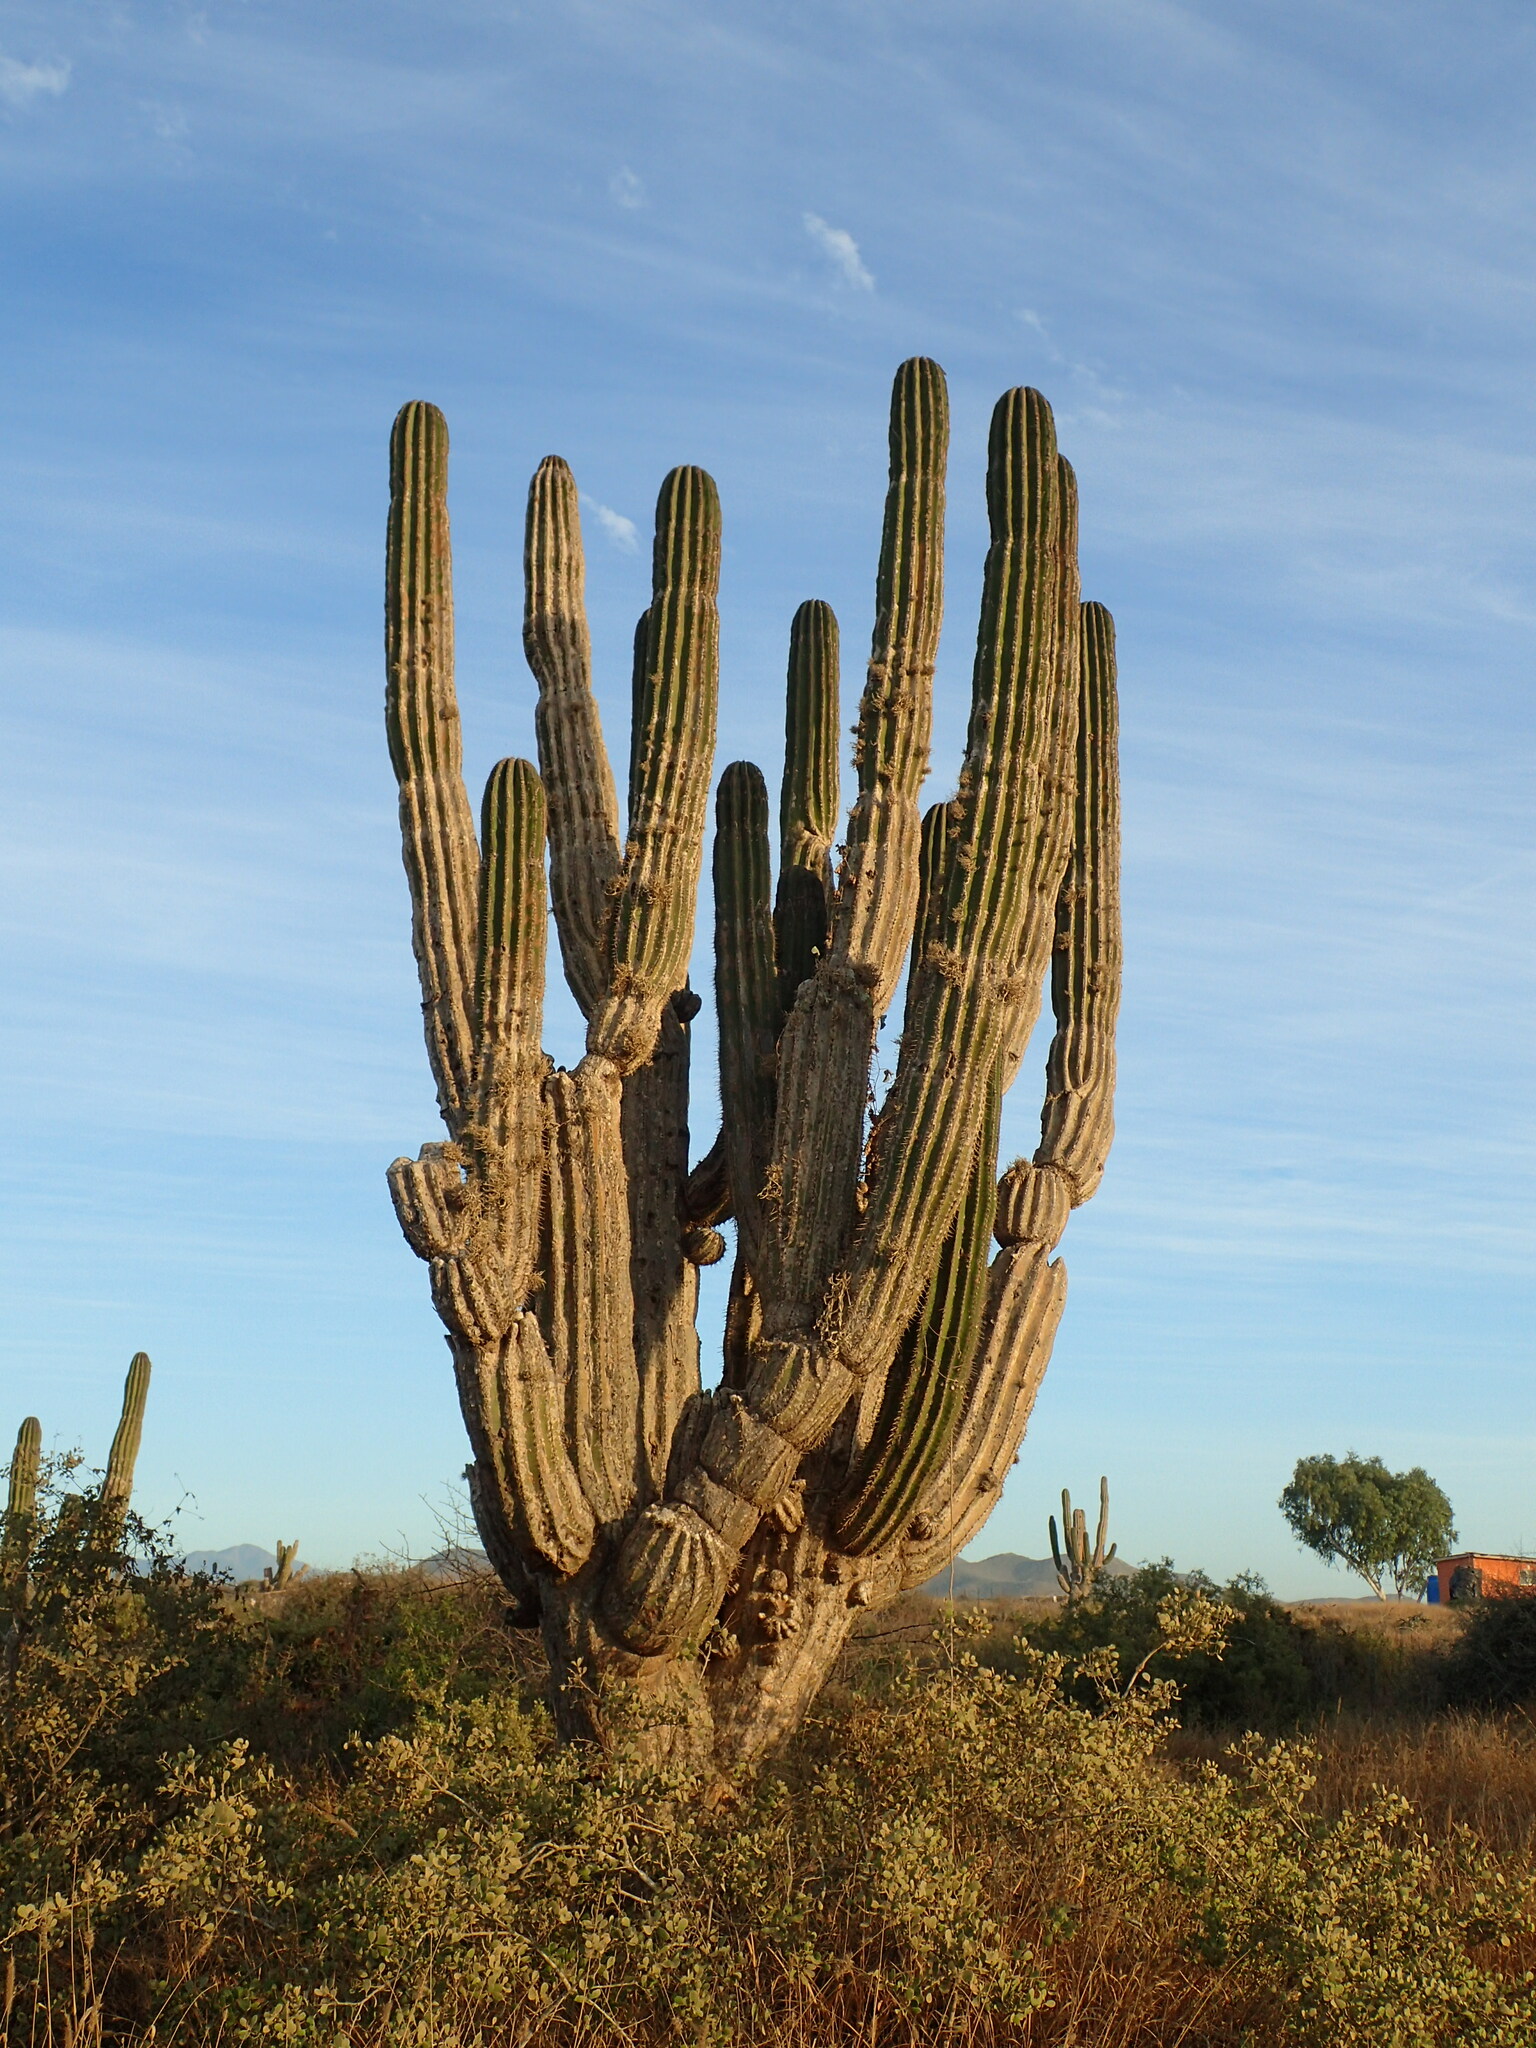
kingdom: Plantae
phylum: Tracheophyta
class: Magnoliopsida
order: Caryophyllales
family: Cactaceae
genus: Pachycereus
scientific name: Pachycereus pringlei
